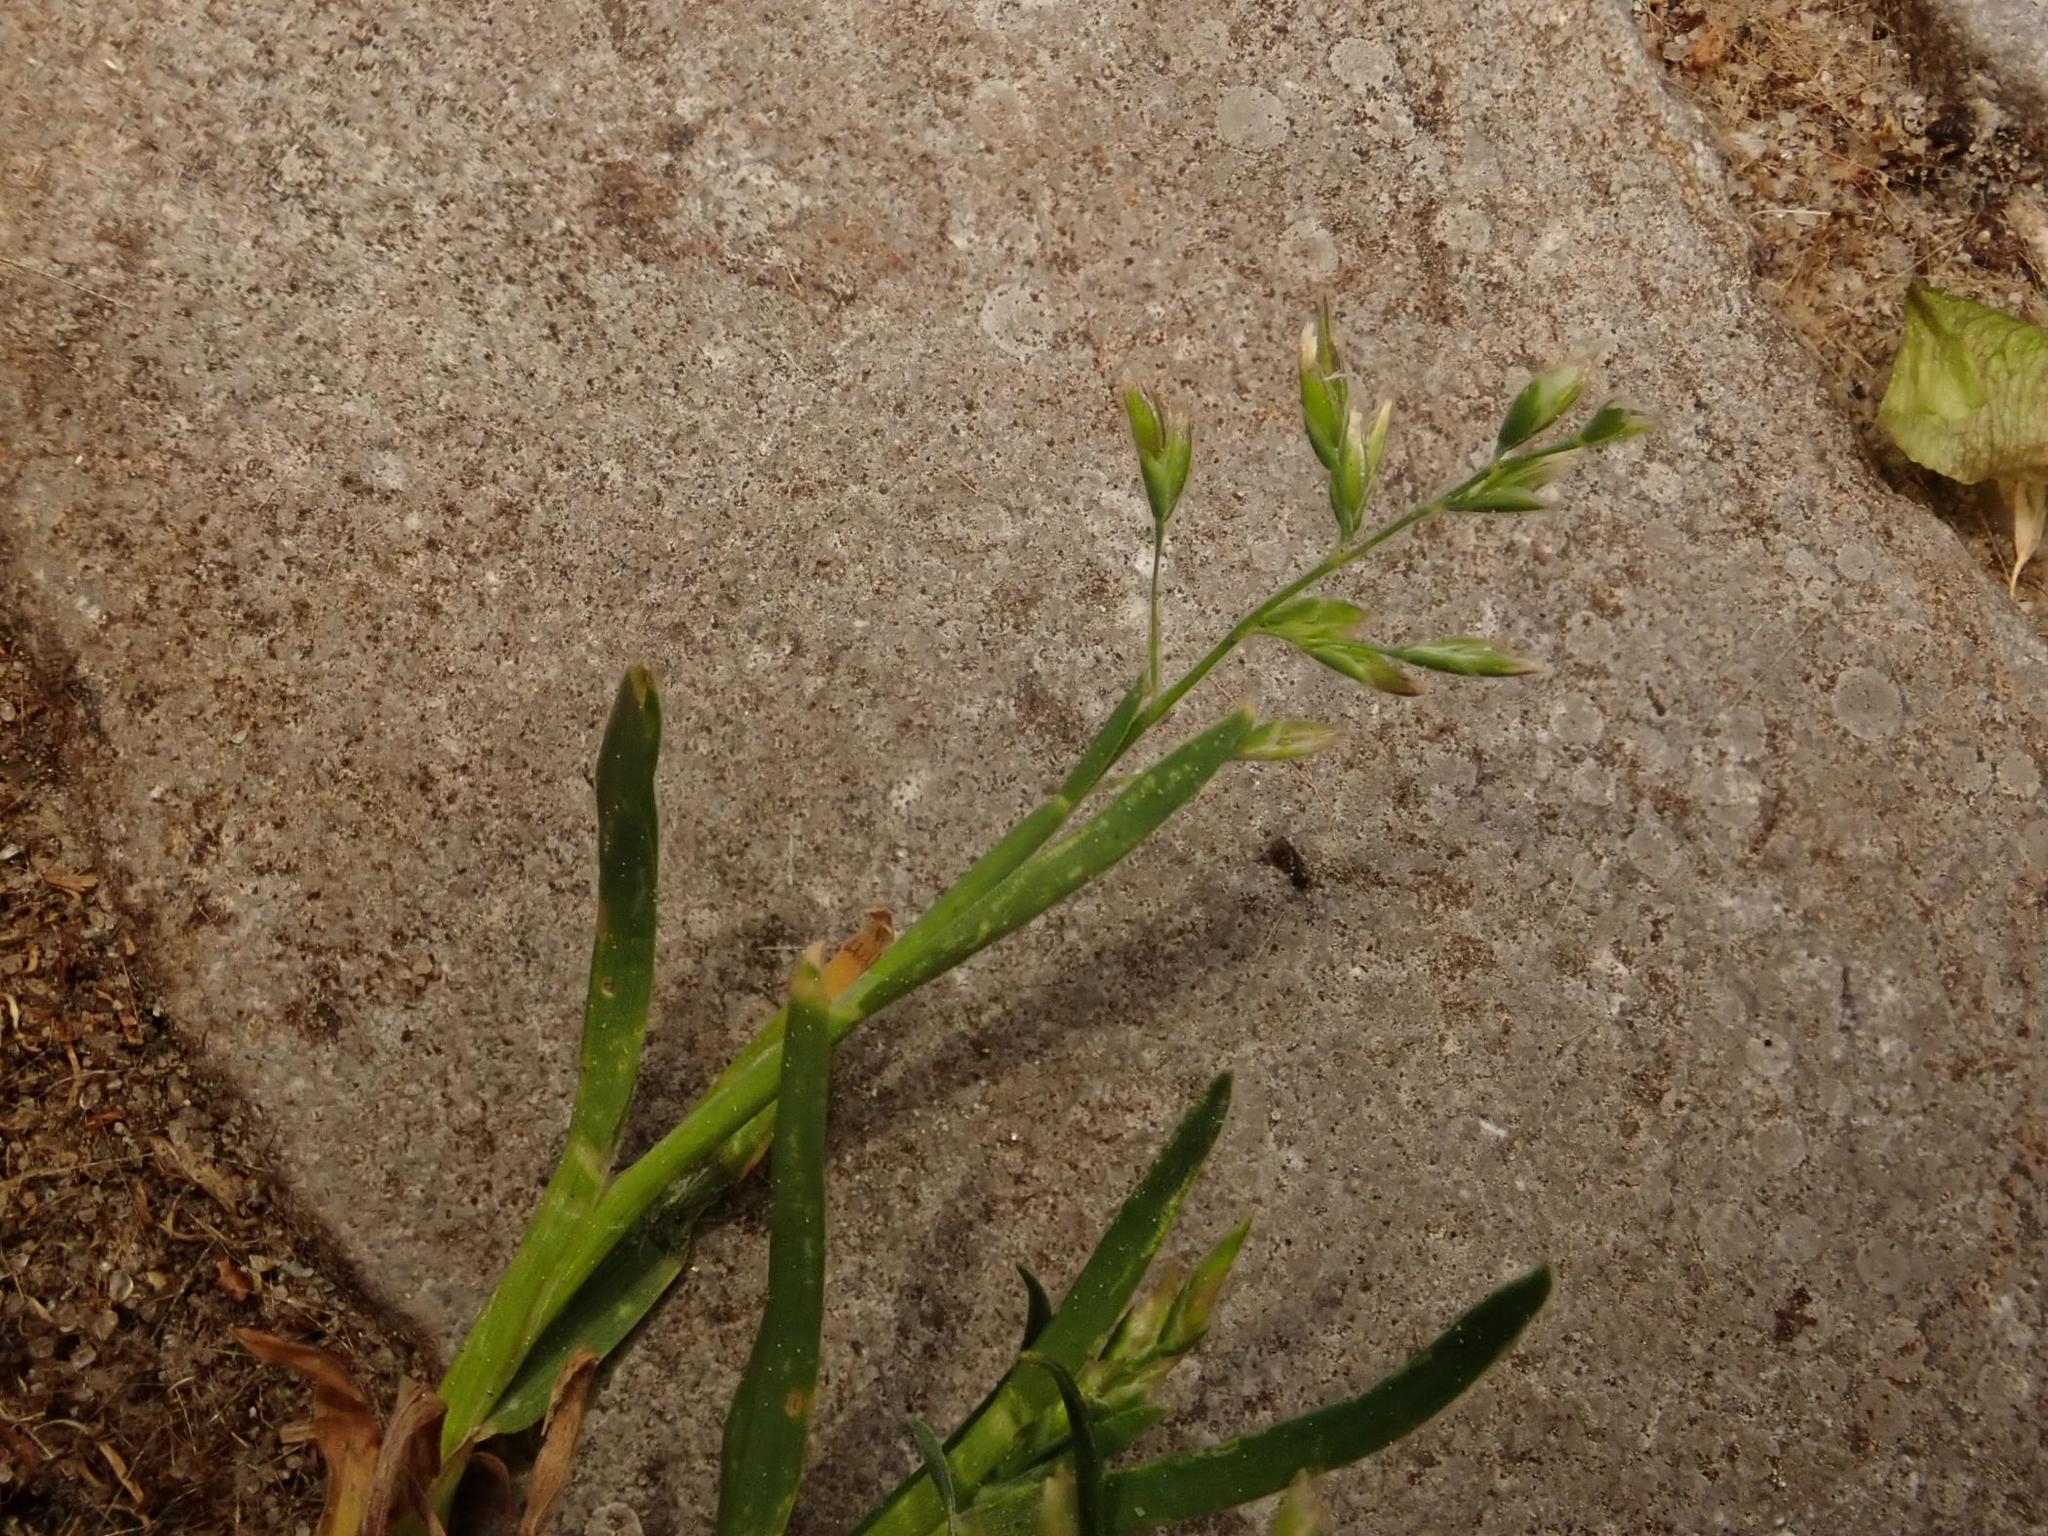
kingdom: Plantae
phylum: Tracheophyta
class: Liliopsida
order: Poales
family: Poaceae
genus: Poa
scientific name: Poa annua
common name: Annual bluegrass
